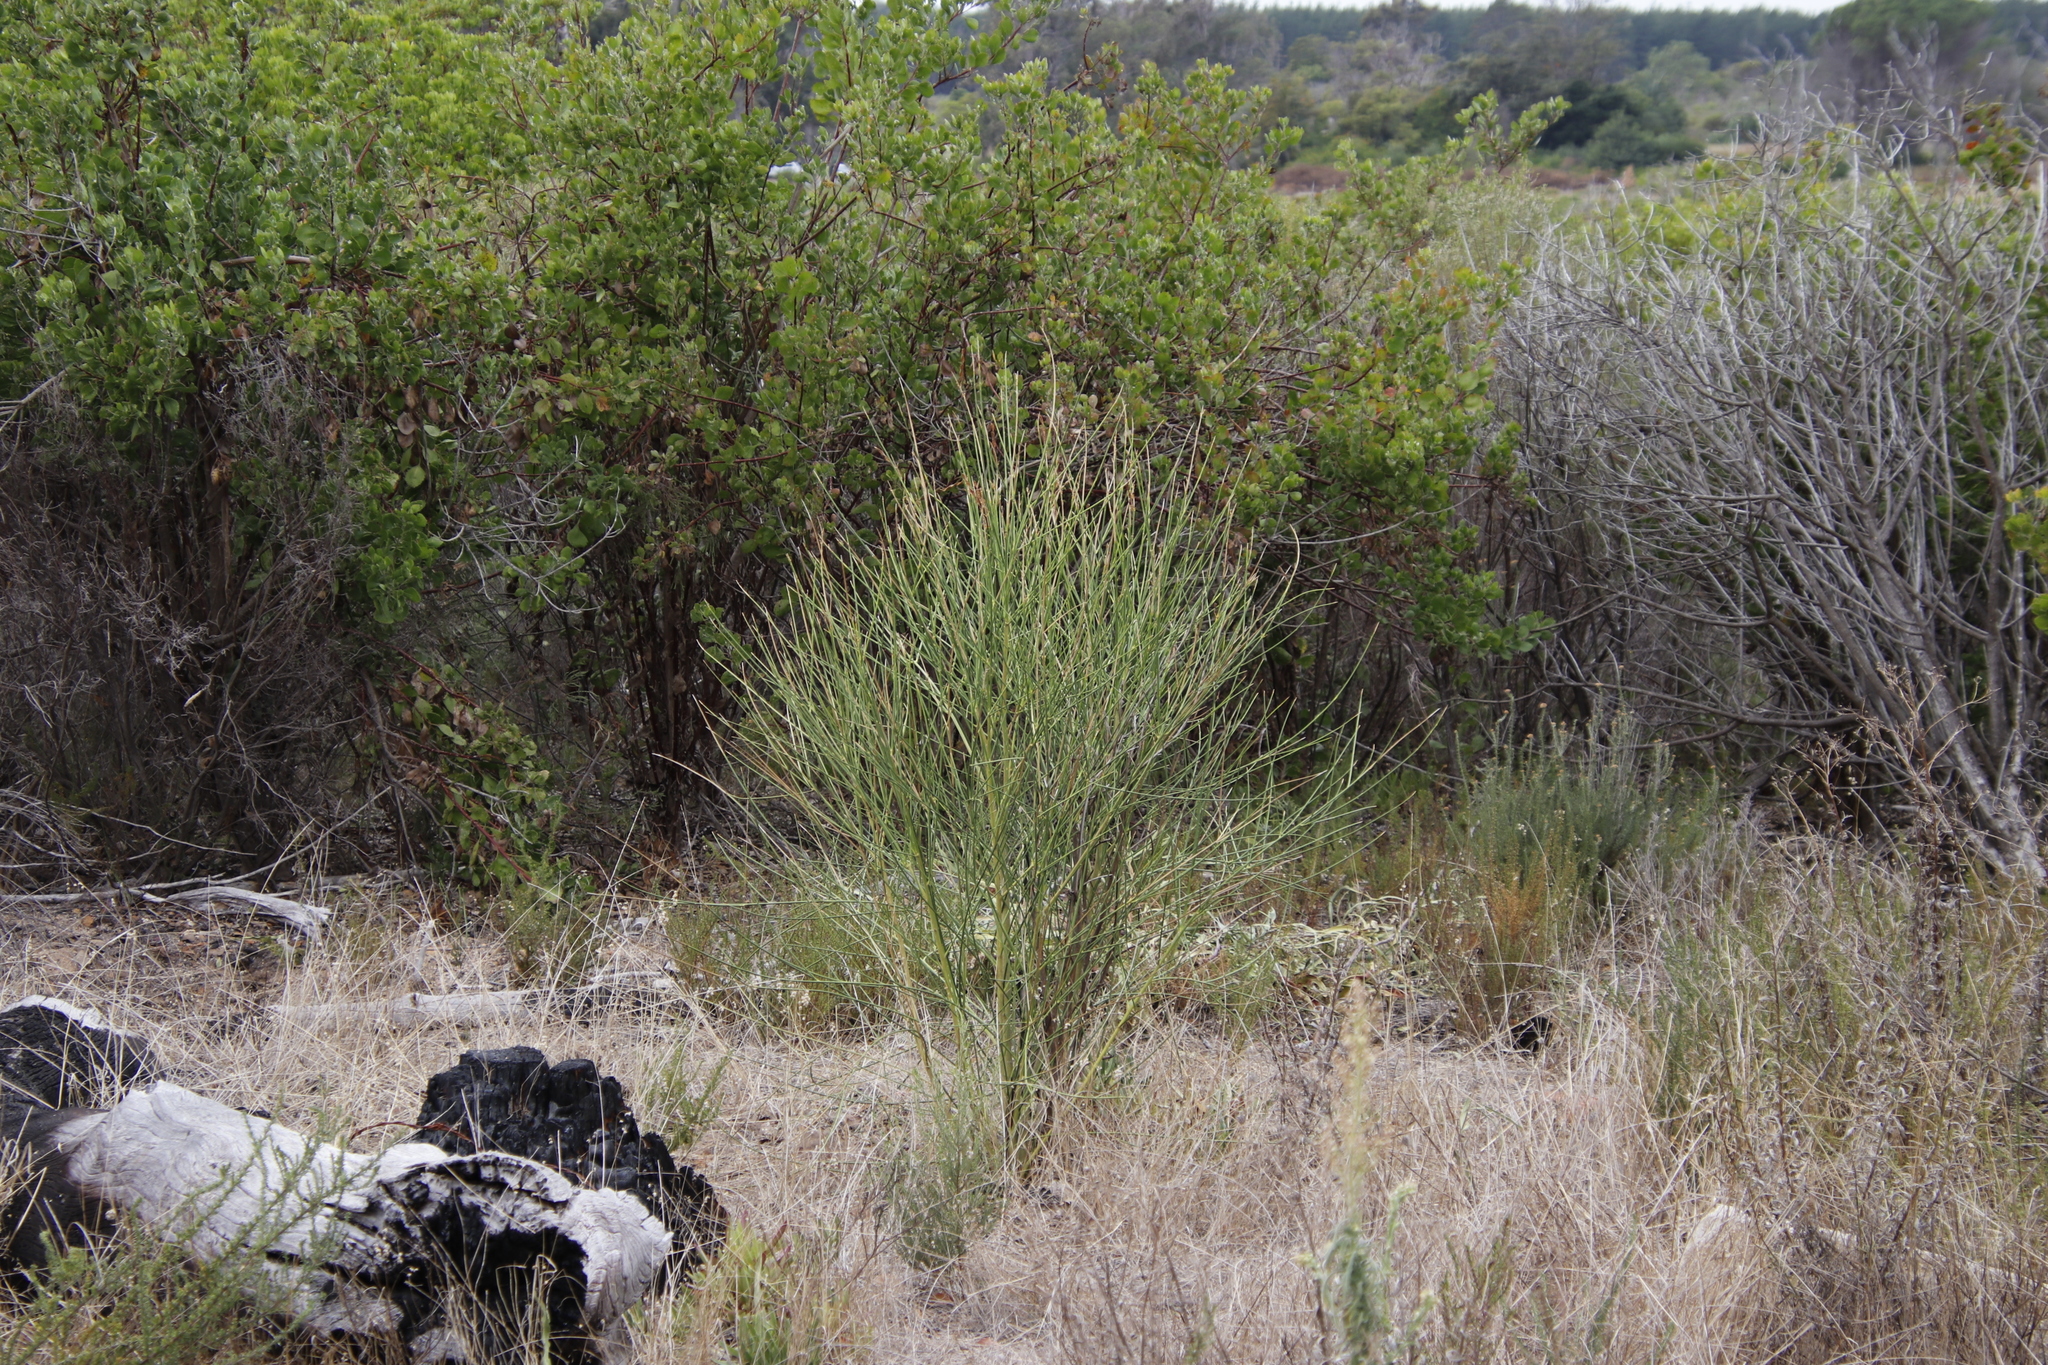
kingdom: Plantae
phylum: Tracheophyta
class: Magnoliopsida
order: Fabales
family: Fabaceae
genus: Spartium
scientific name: Spartium junceum
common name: Spanish broom
